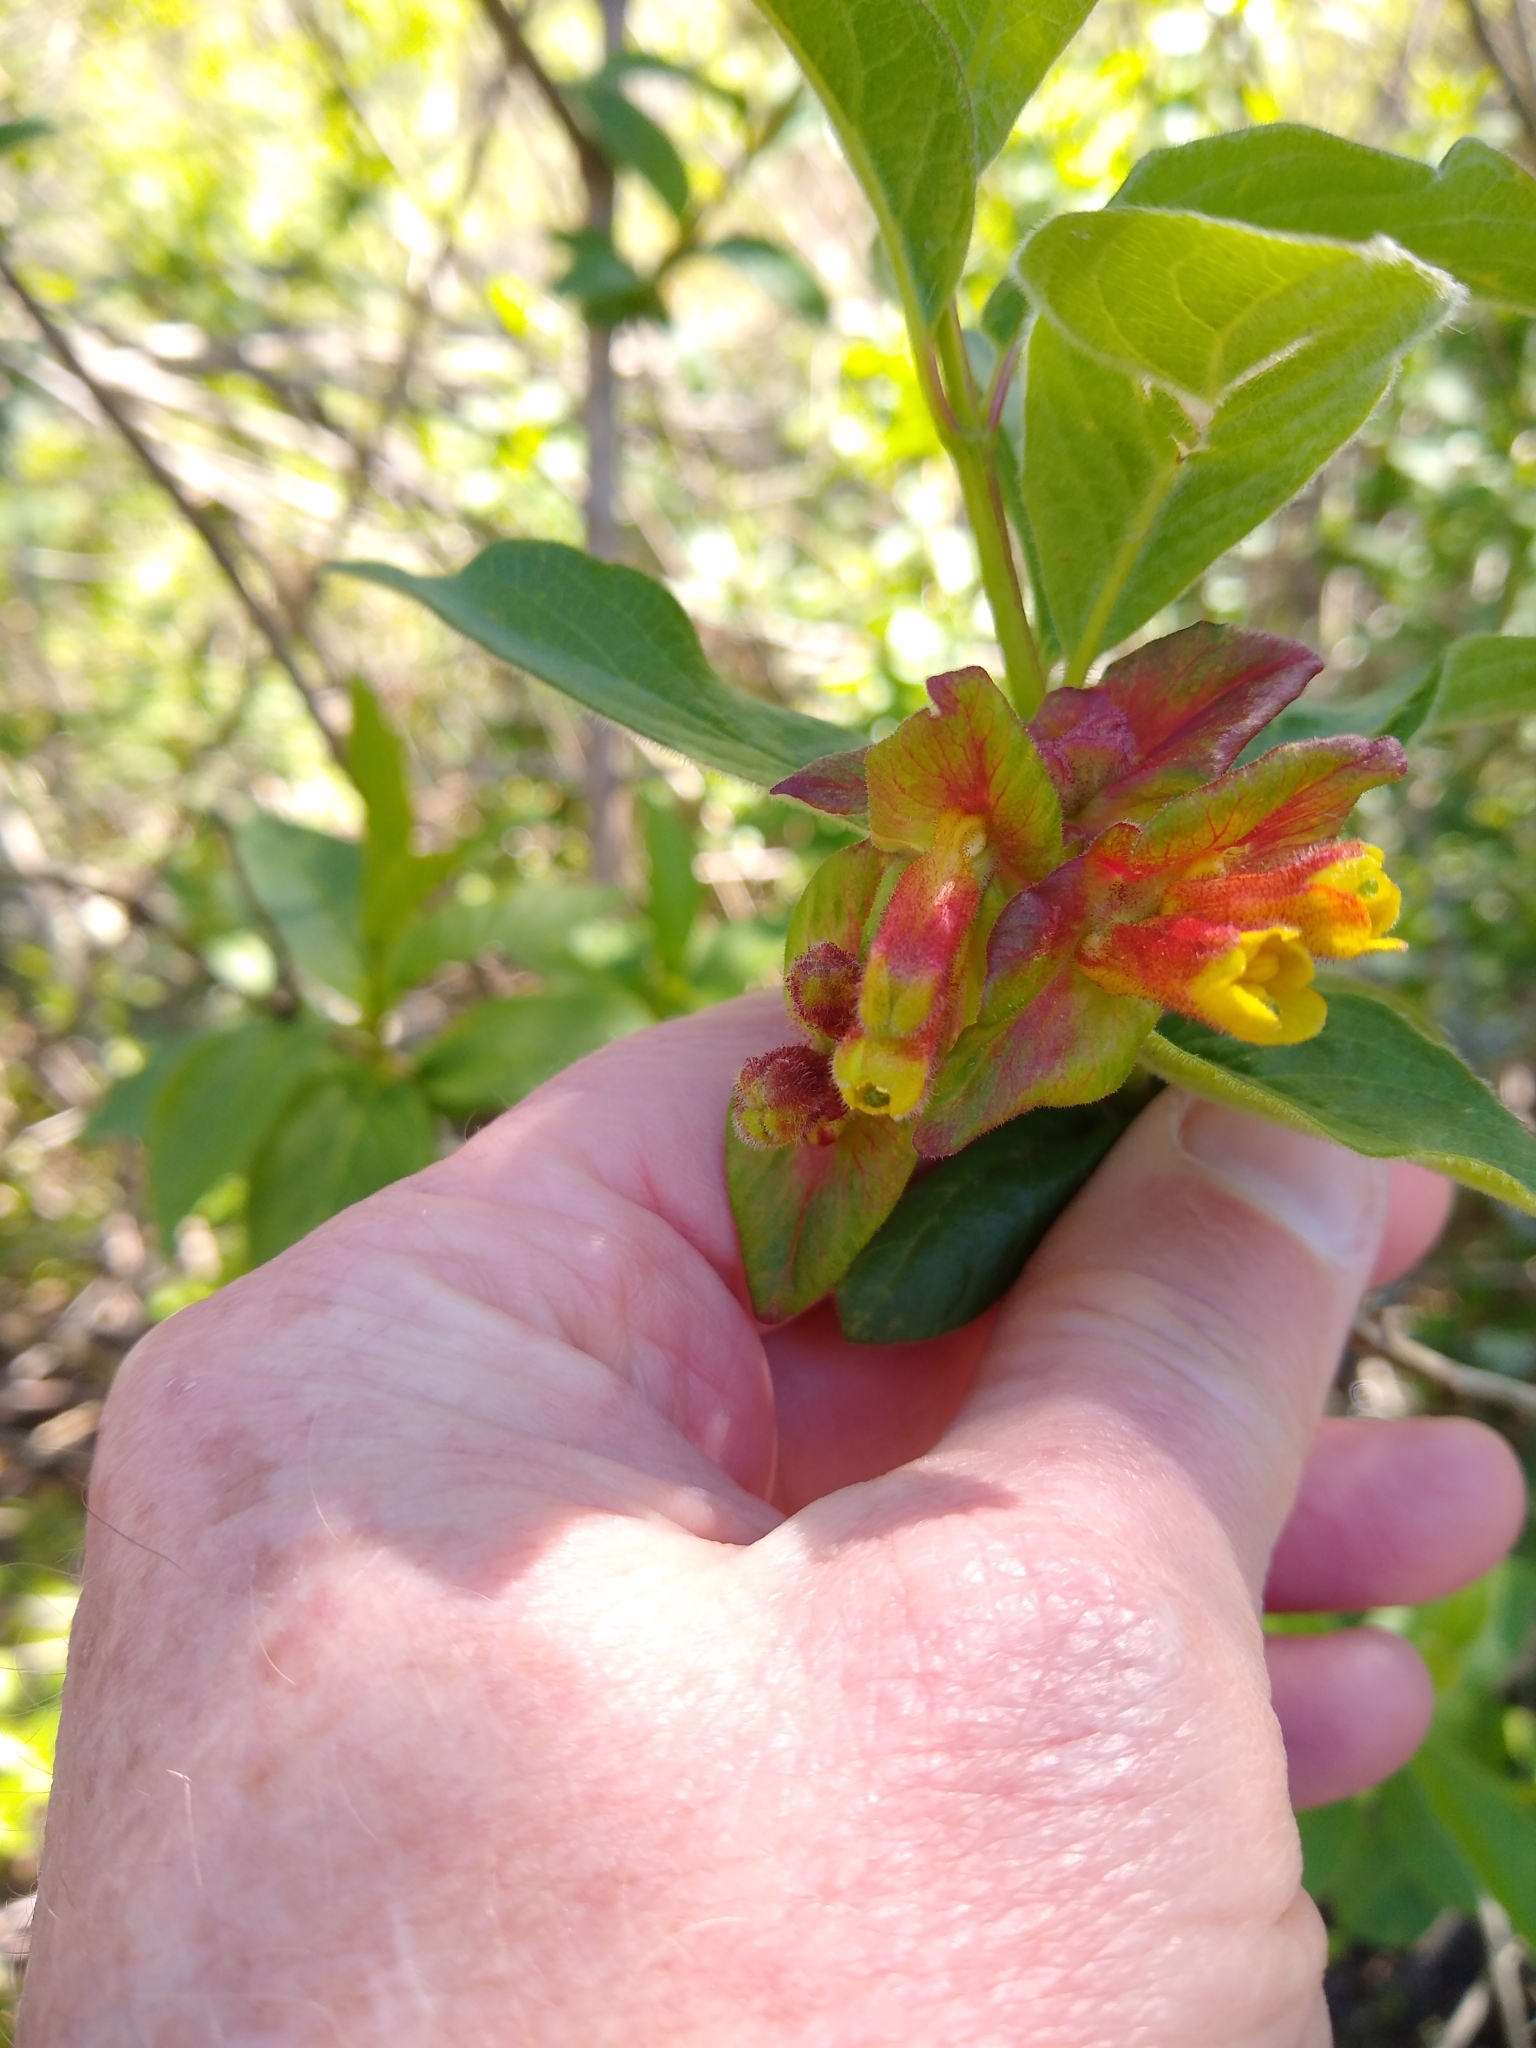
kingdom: Plantae
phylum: Tracheophyta
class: Magnoliopsida
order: Dipsacales
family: Caprifoliaceae
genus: Lonicera
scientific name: Lonicera involucrata
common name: Californian honeysuckle
